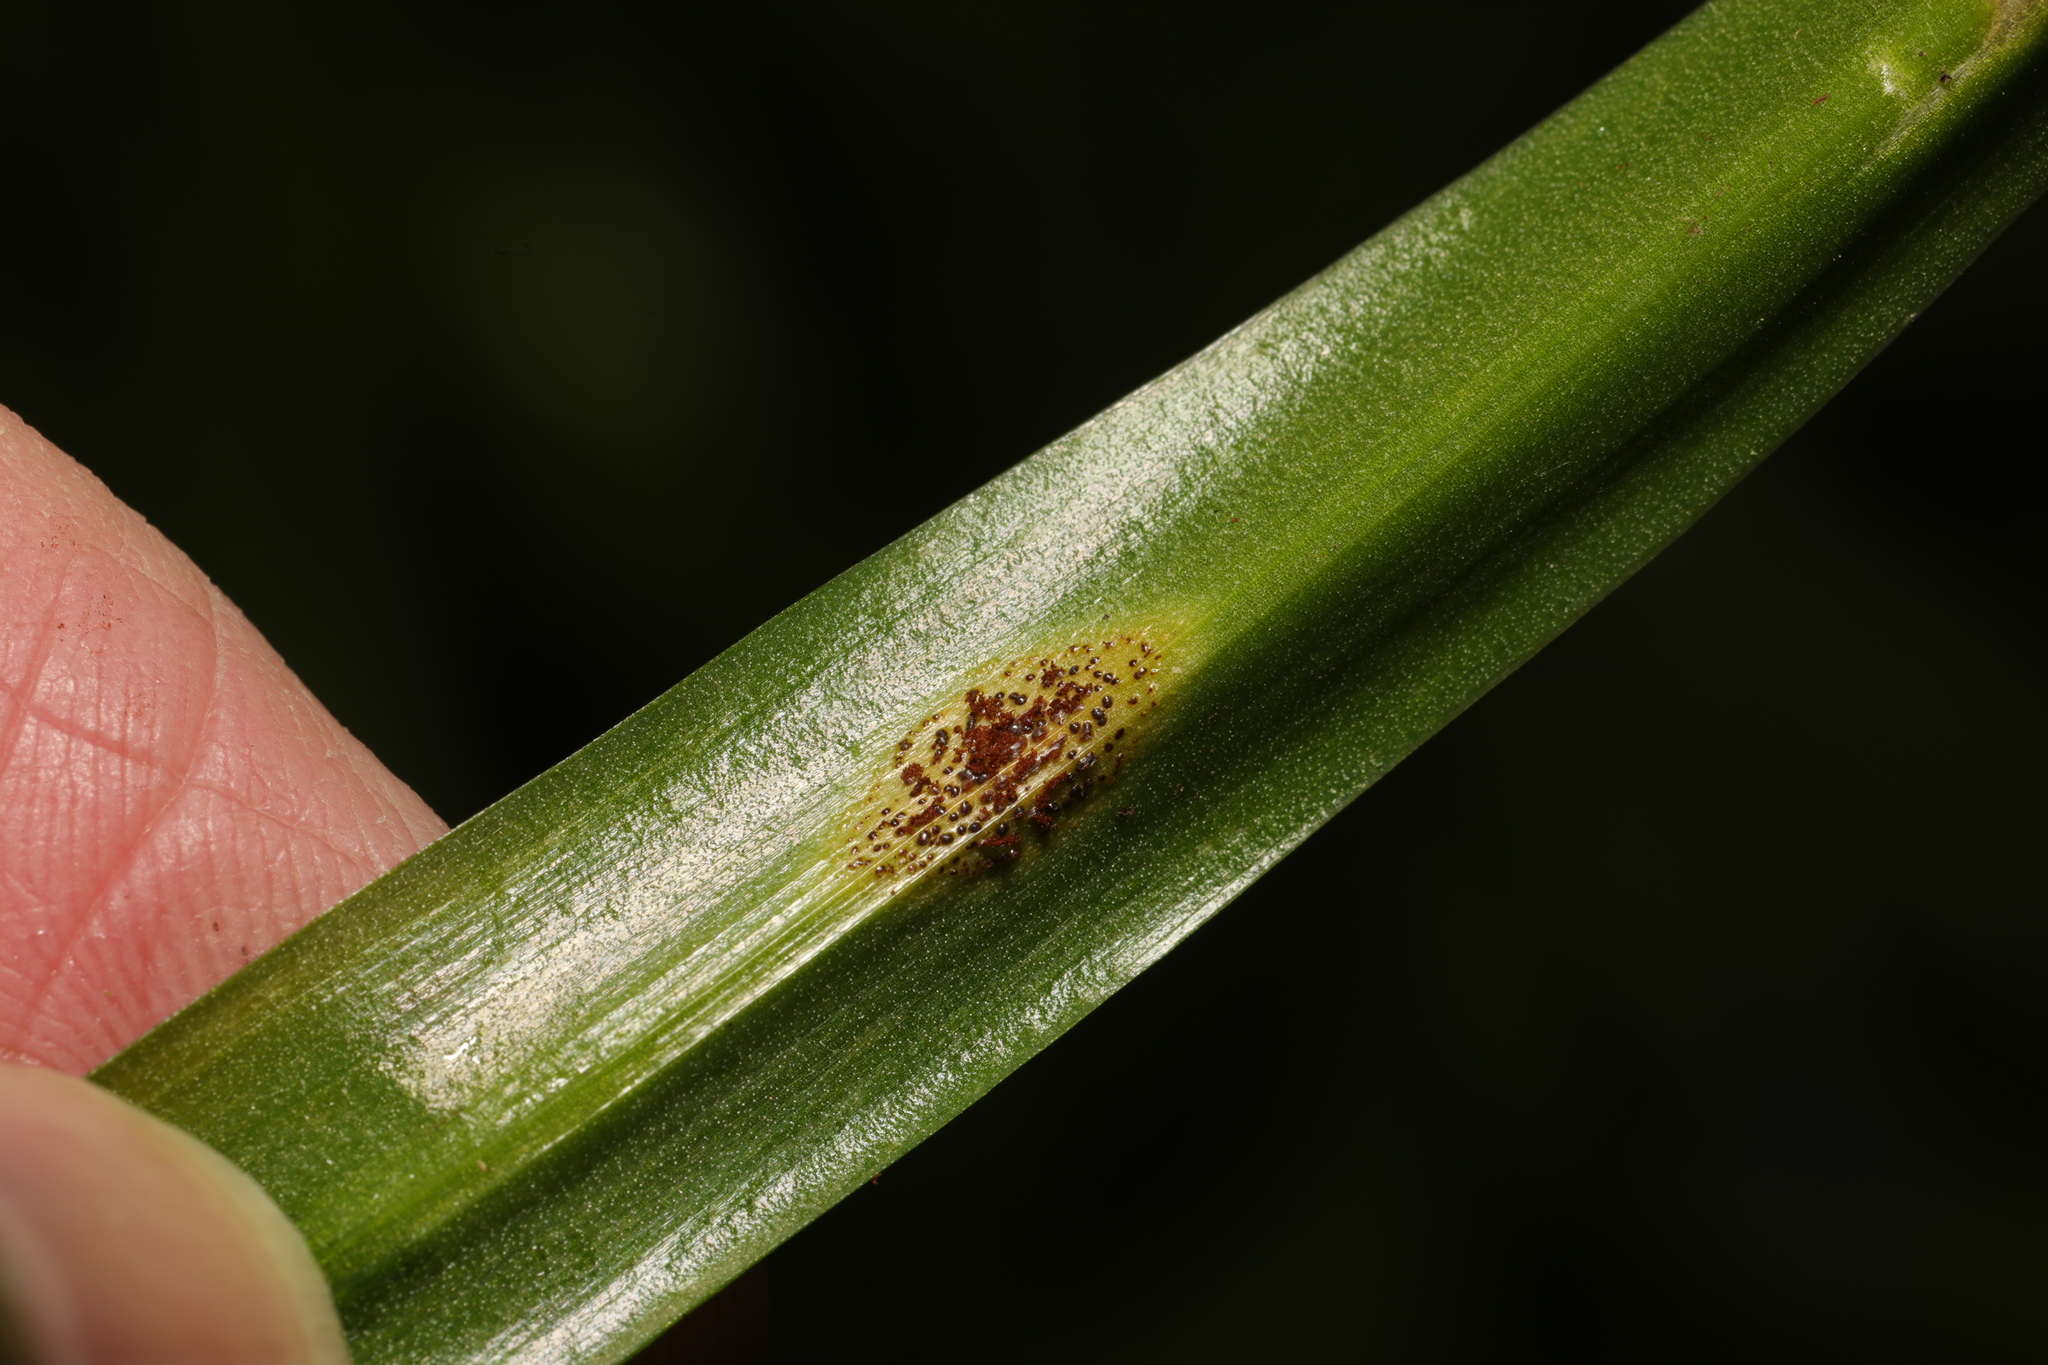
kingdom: Fungi
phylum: Basidiomycota
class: Pucciniomycetes
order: Pucciniales
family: Pucciniaceae
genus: Uromyces
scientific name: Uromyces hyacinthi
